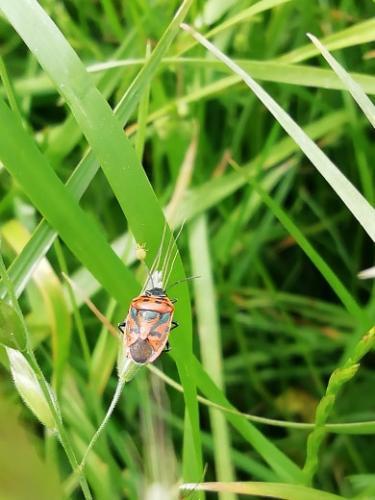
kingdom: Animalia
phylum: Arthropoda
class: Insecta
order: Hemiptera
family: Pentatomidae
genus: Eurydema
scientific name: Eurydema ornata
